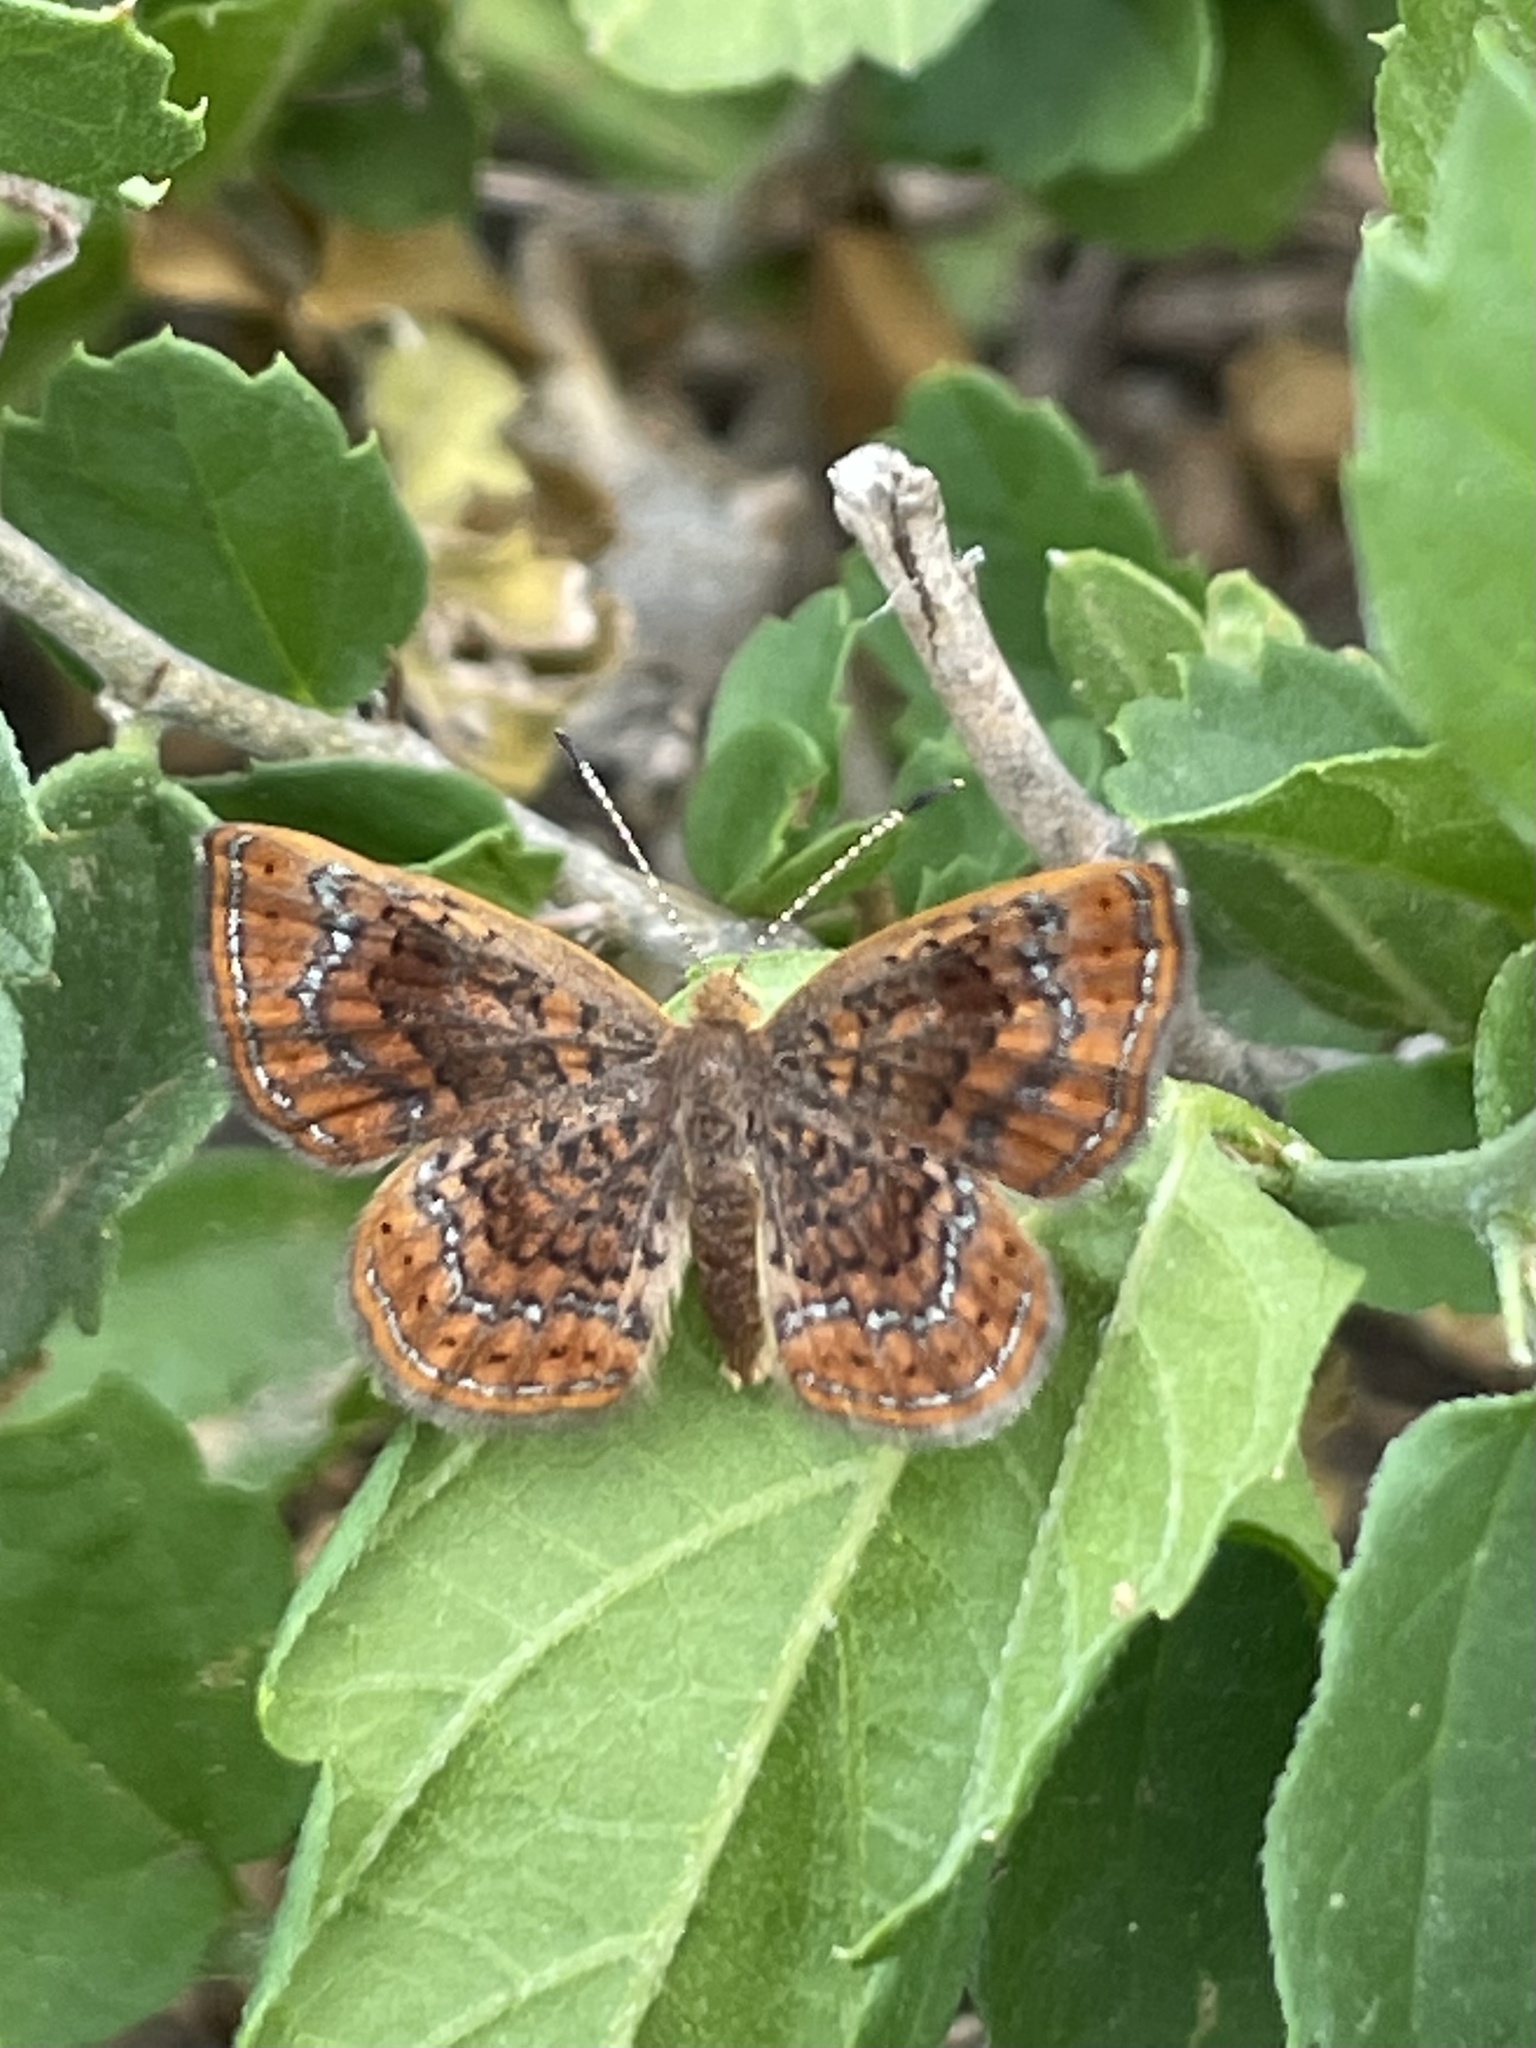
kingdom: Animalia
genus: Calephelis
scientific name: Calephelis perditalis
